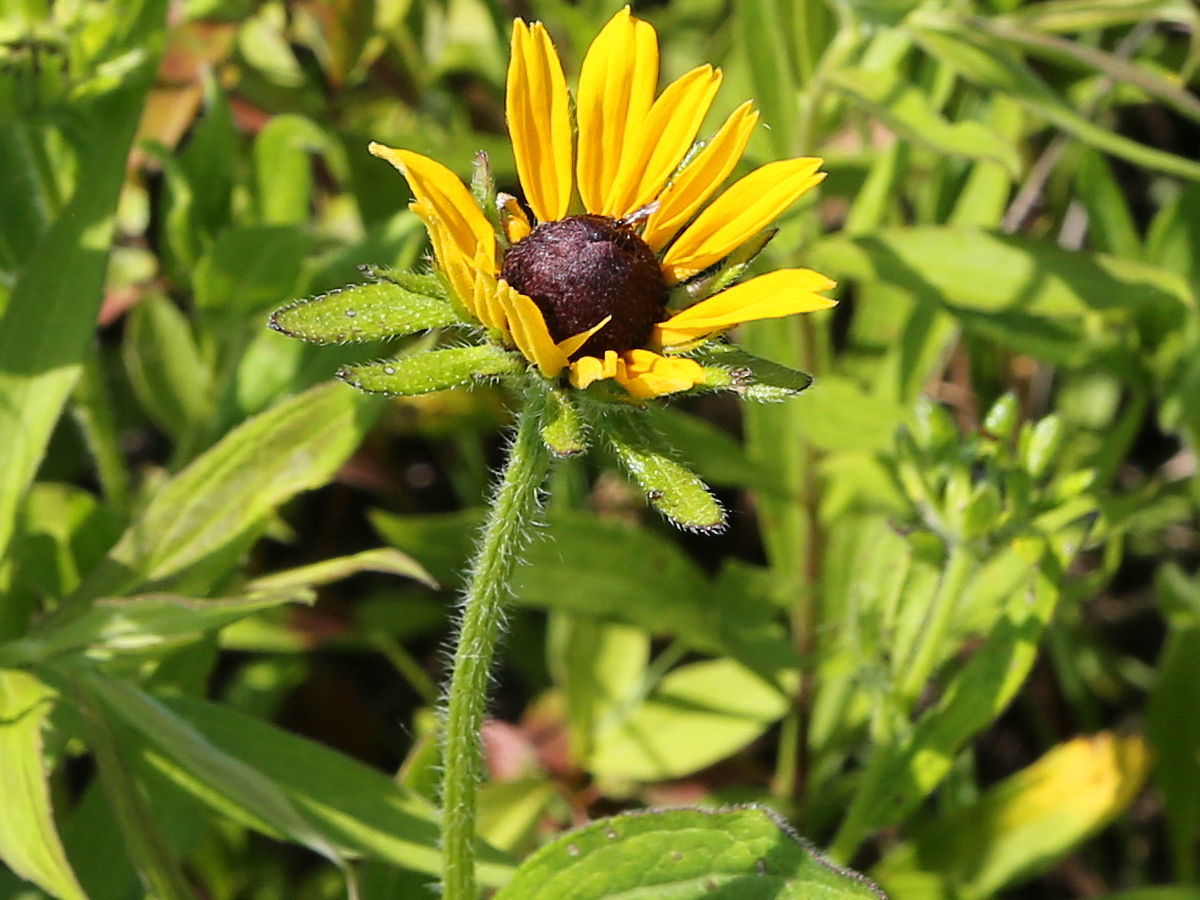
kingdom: Plantae
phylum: Tracheophyta
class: Magnoliopsida
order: Asterales
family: Asteraceae
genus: Rudbeckia
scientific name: Rudbeckia hirta
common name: Black-eyed-susan
